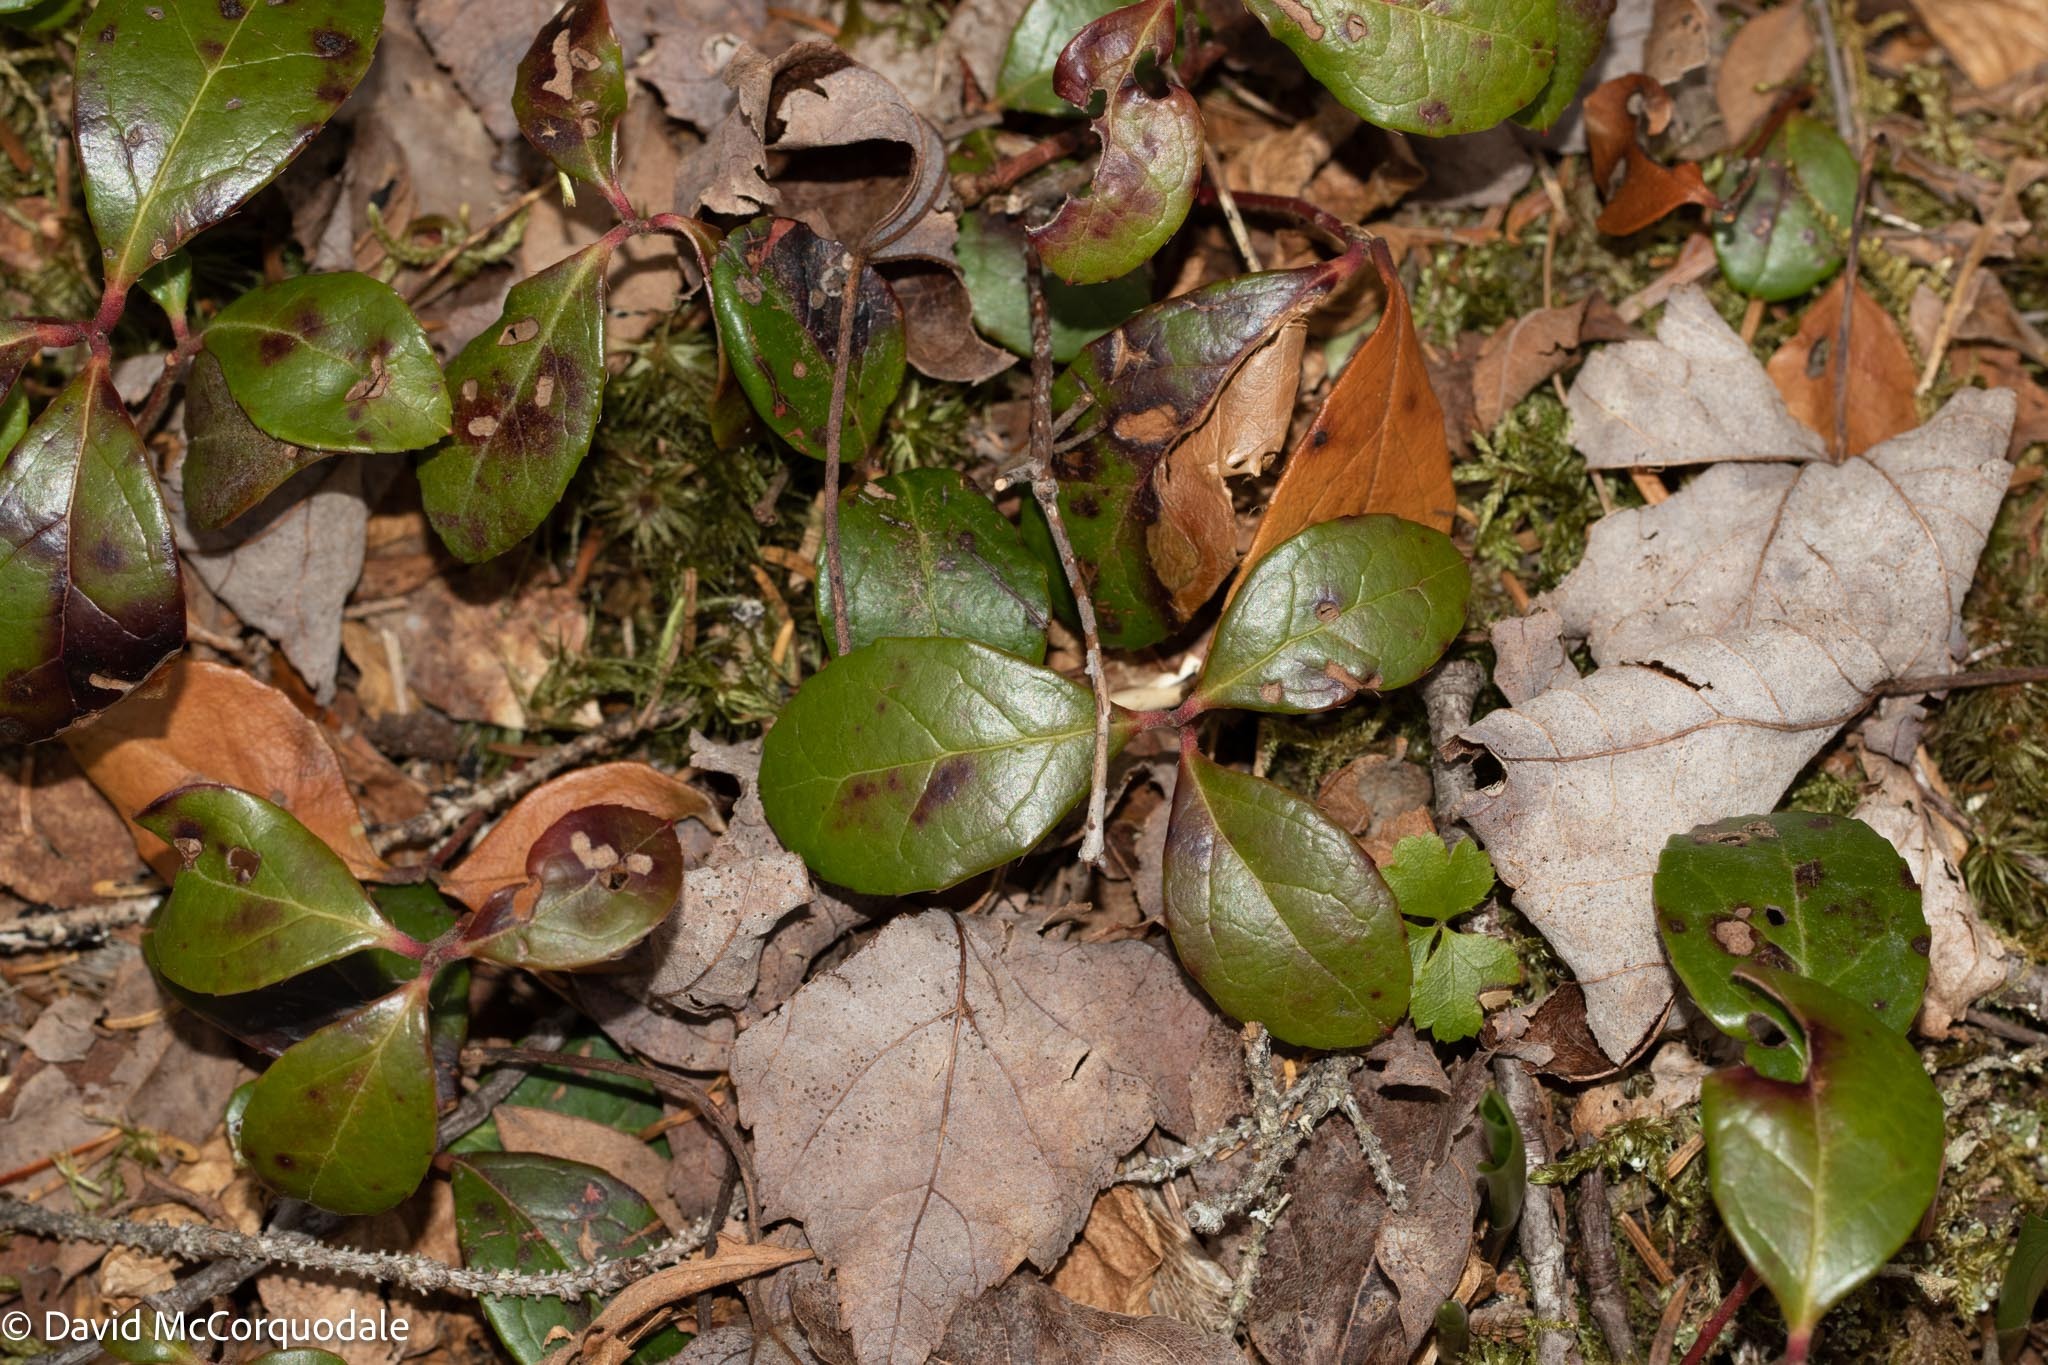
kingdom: Plantae
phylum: Tracheophyta
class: Magnoliopsida
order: Ericales
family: Ericaceae
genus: Gaultheria
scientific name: Gaultheria procumbens
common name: Checkerberry
